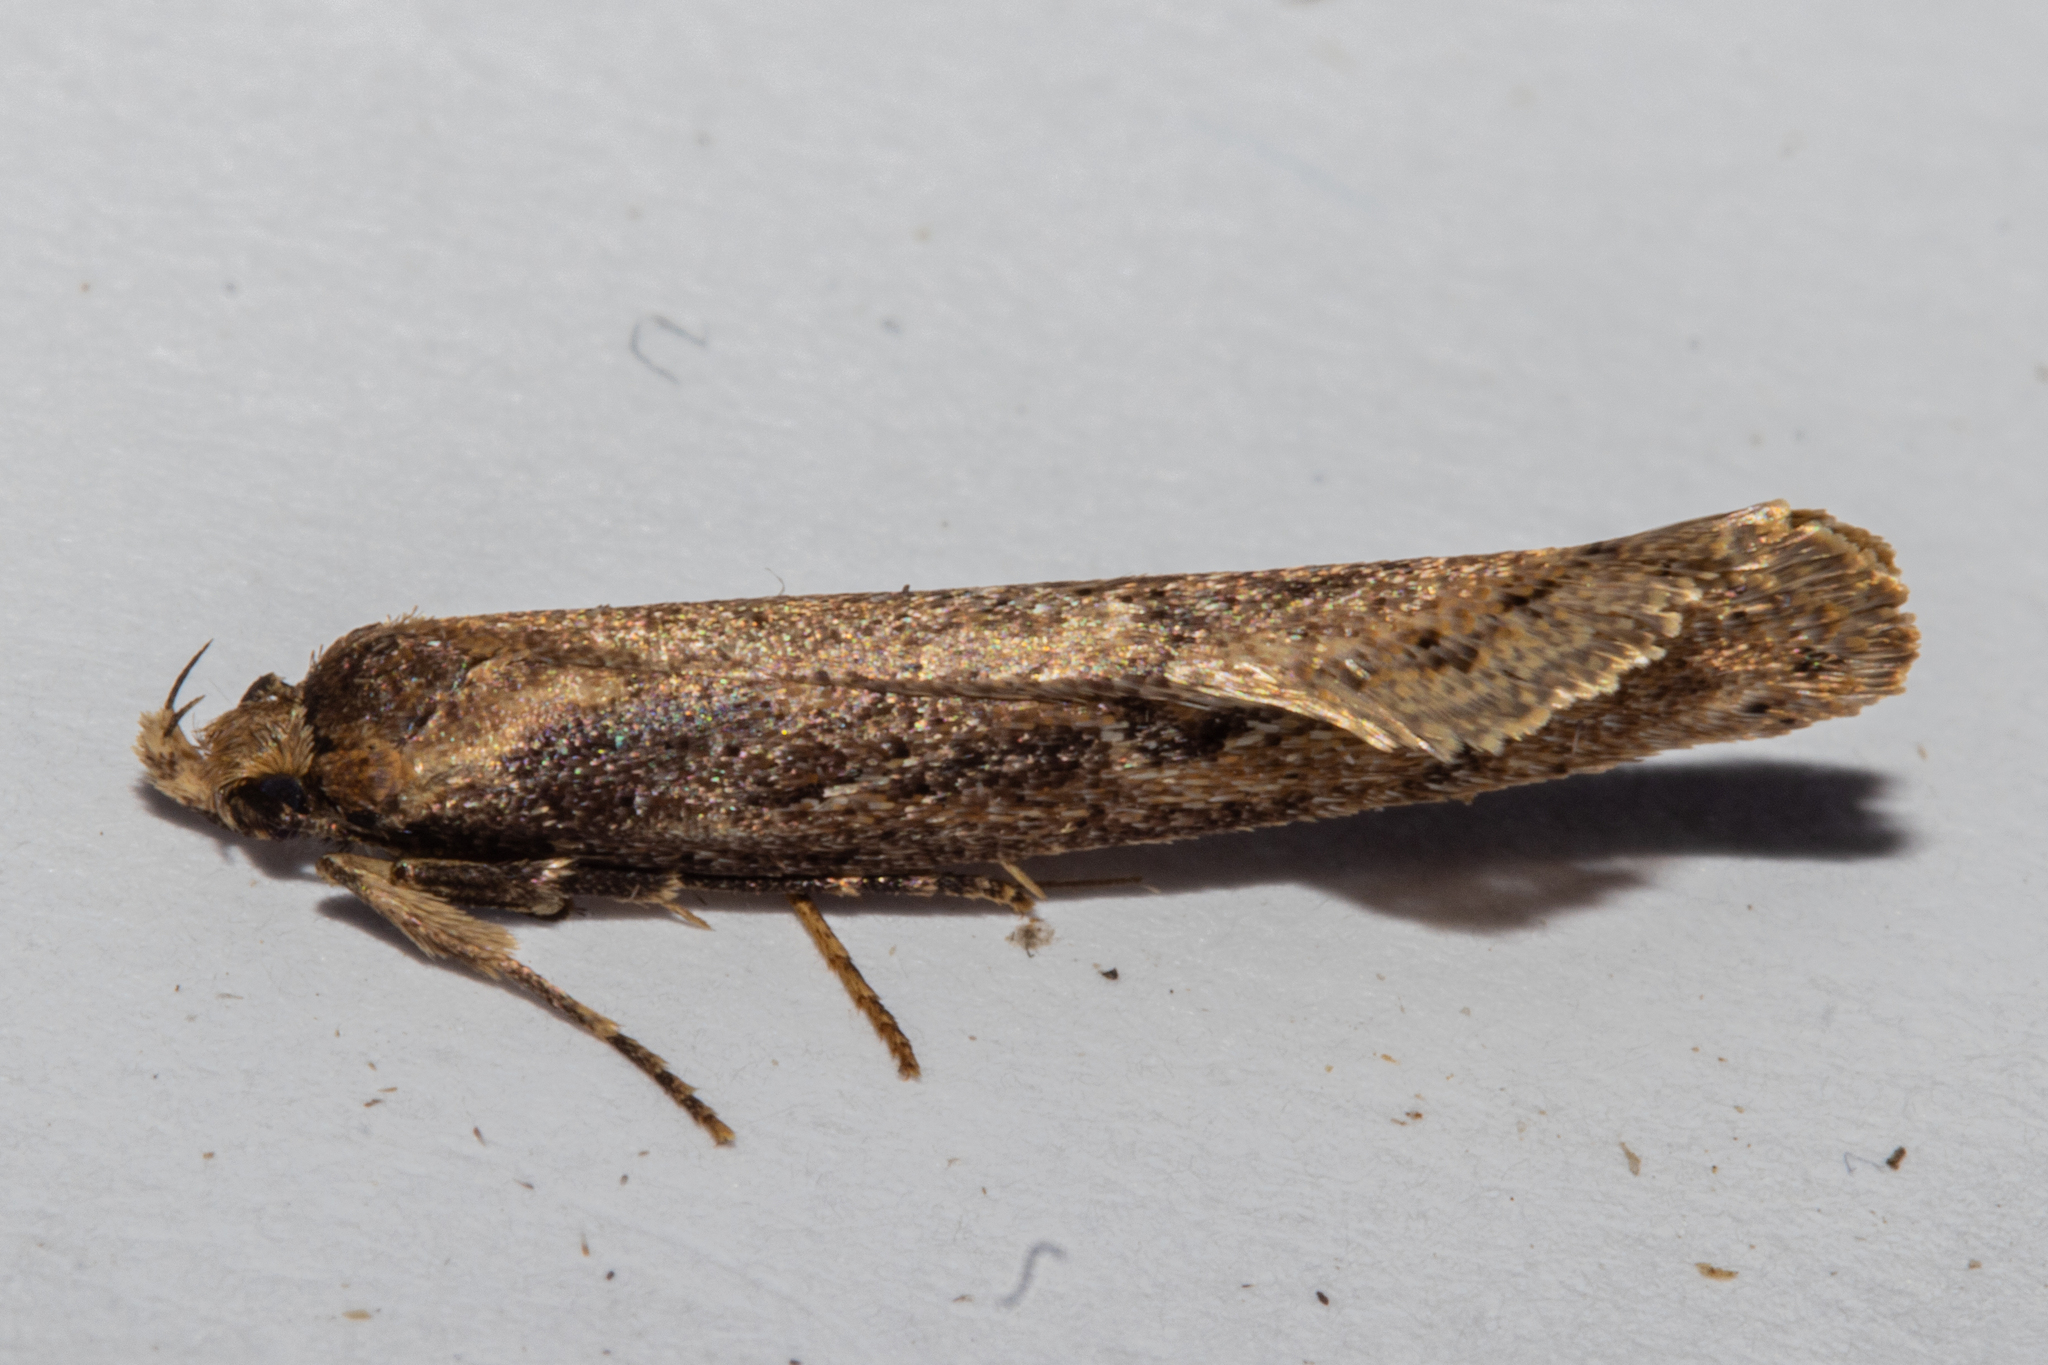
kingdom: Animalia
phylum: Arthropoda
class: Insecta
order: Lepidoptera
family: Oecophoridae
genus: Atomotricha
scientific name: Atomotricha lewisi
